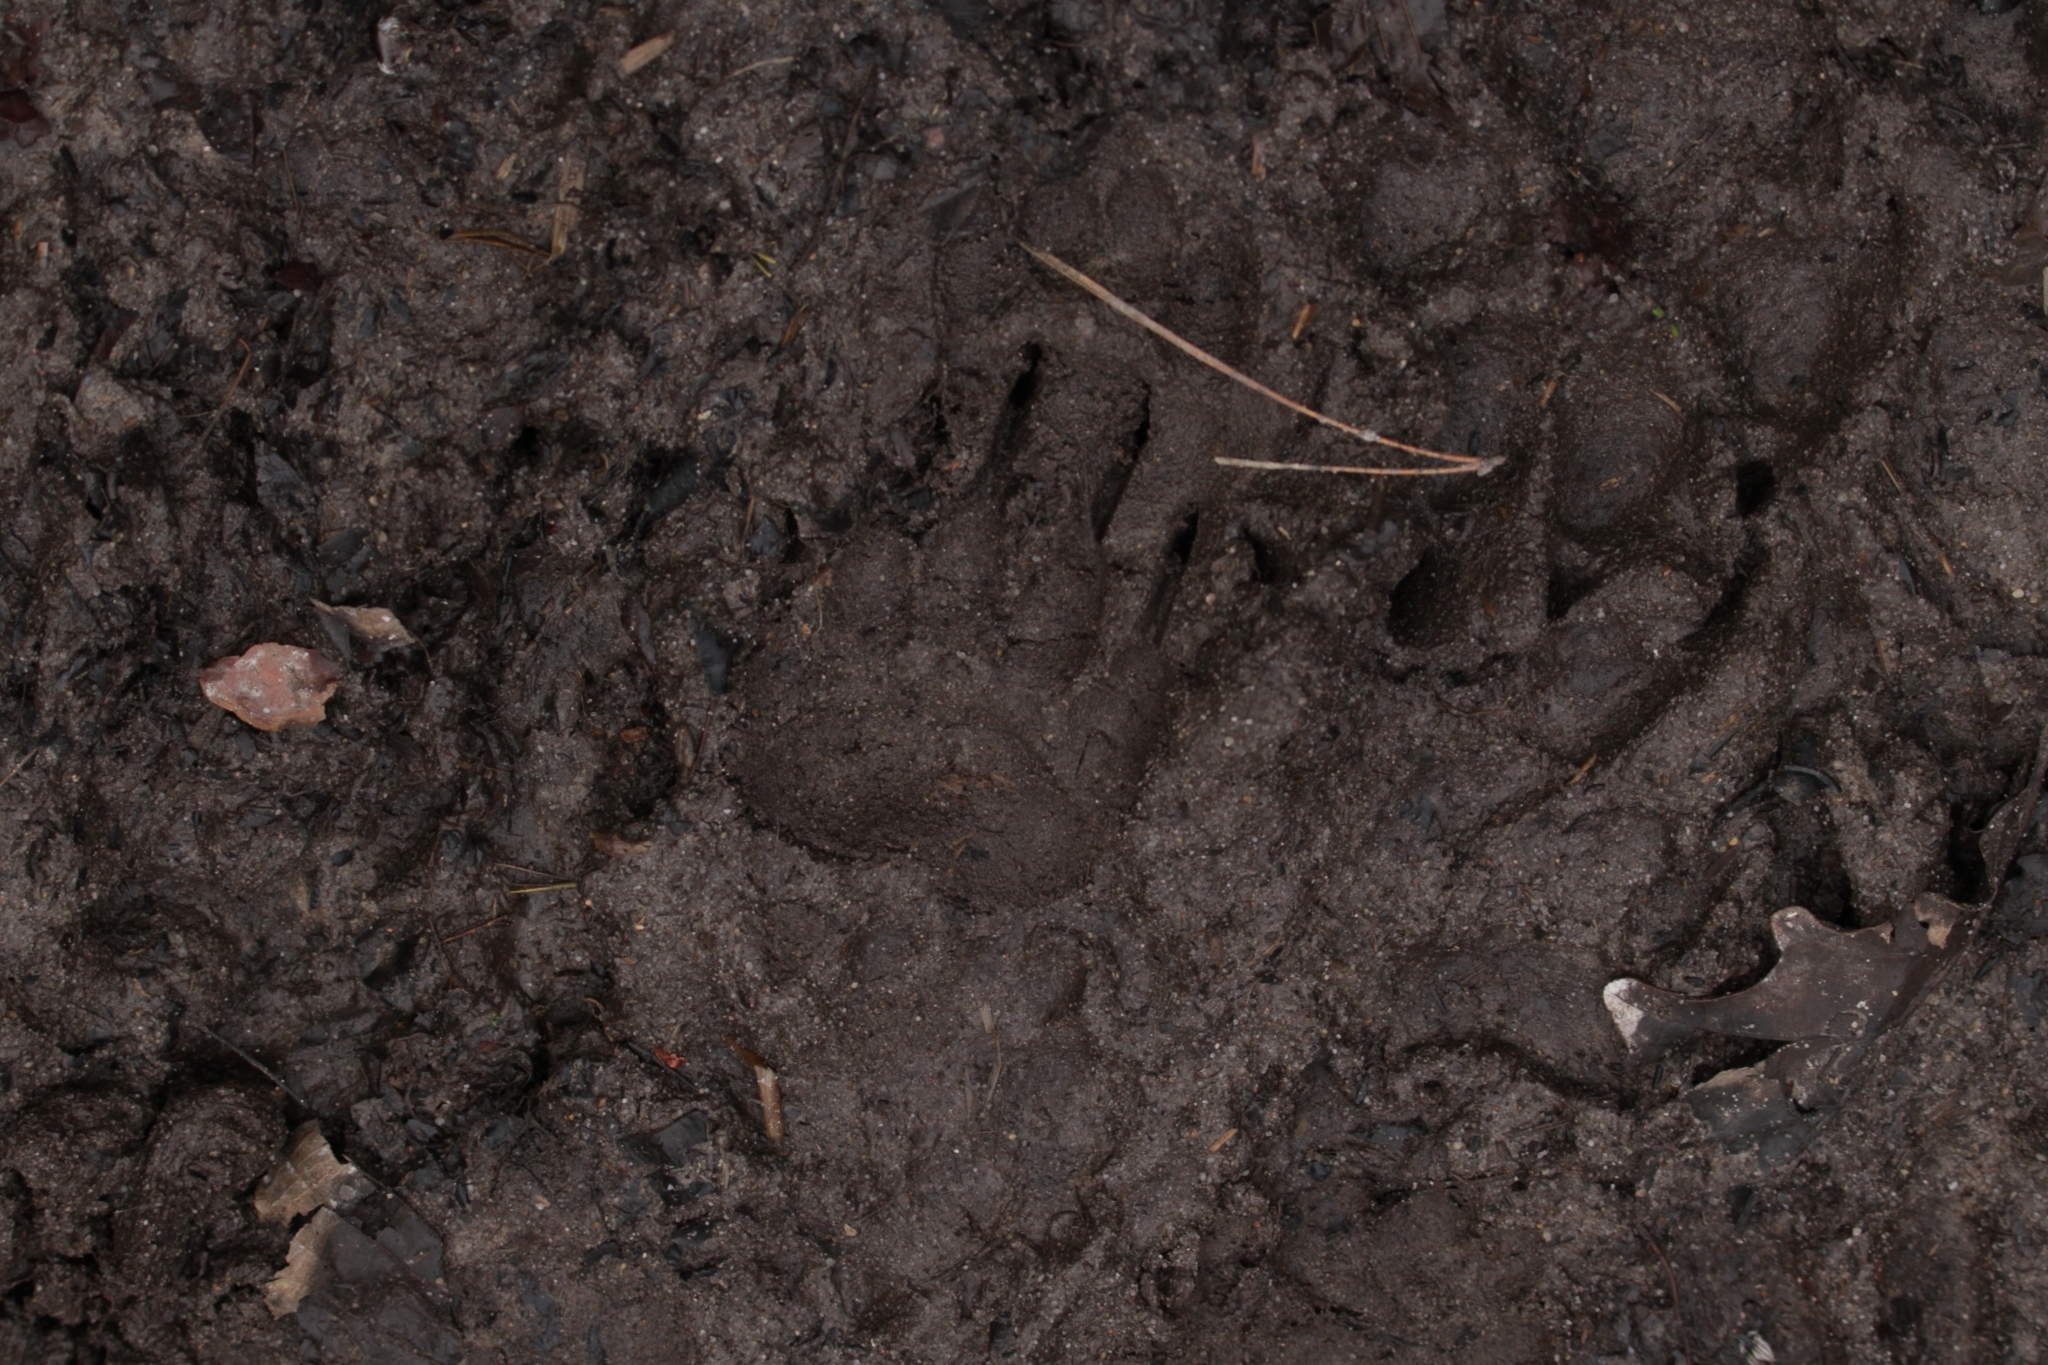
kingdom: Animalia
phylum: Chordata
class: Mammalia
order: Carnivora
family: Mustelidae
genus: Meles
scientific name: Meles meles
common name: Eurasian badger
